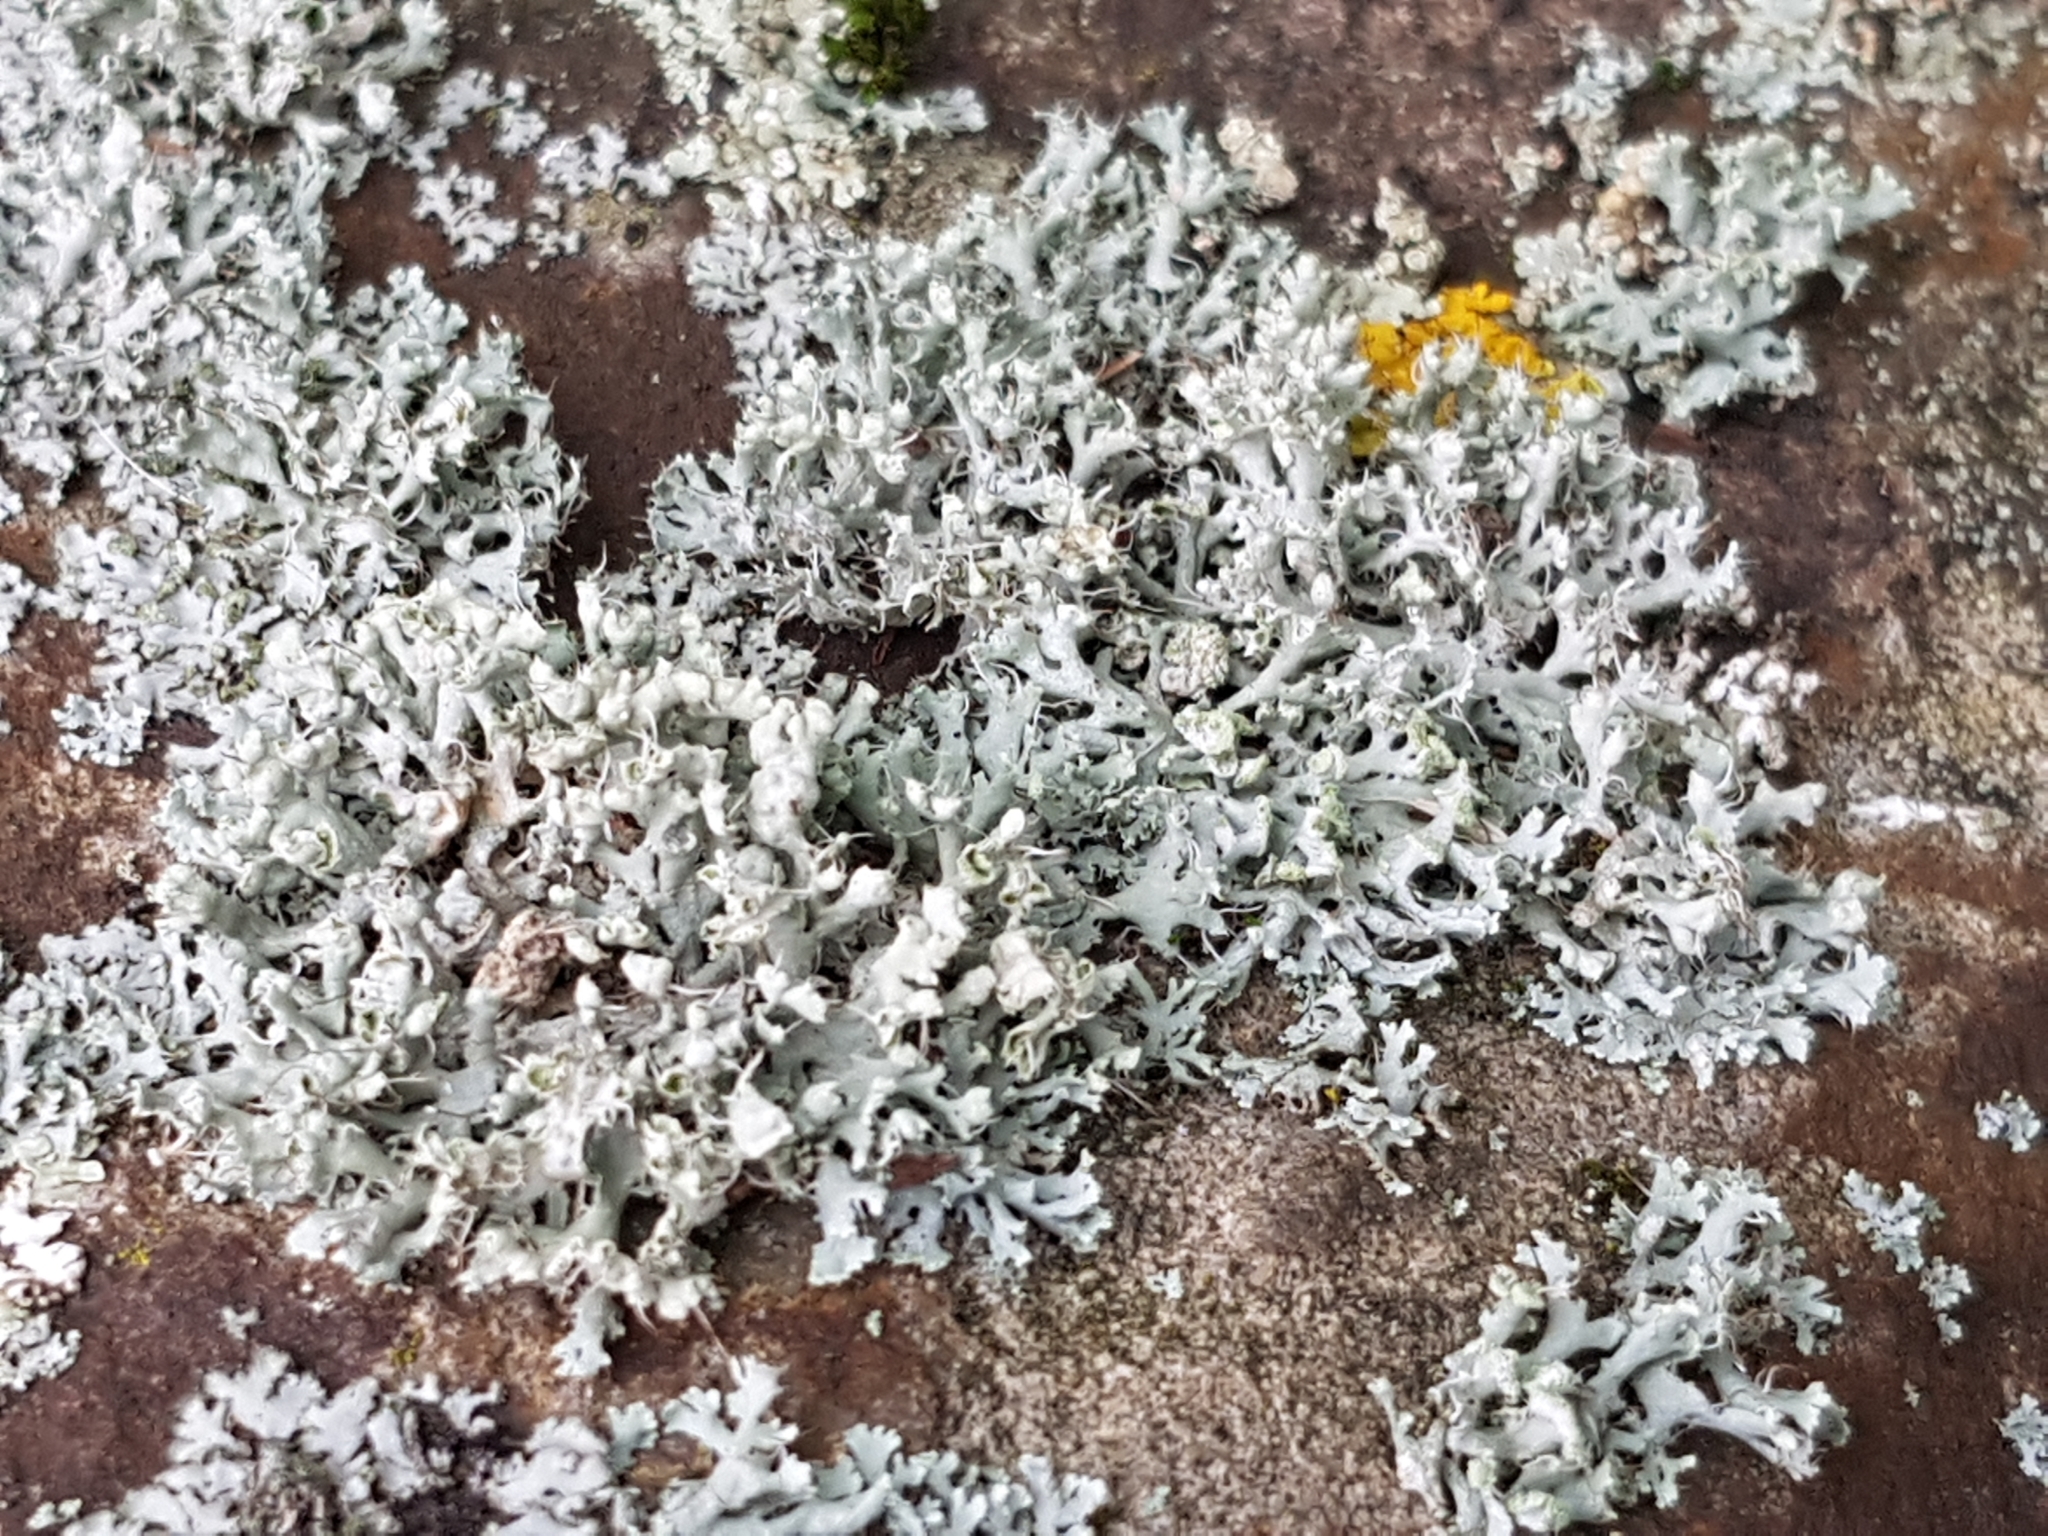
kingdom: Fungi
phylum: Ascomycota
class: Lecanoromycetes
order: Caliciales
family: Physciaceae
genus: Physcia
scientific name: Physcia adscendens
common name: Hooded rosette lichen
